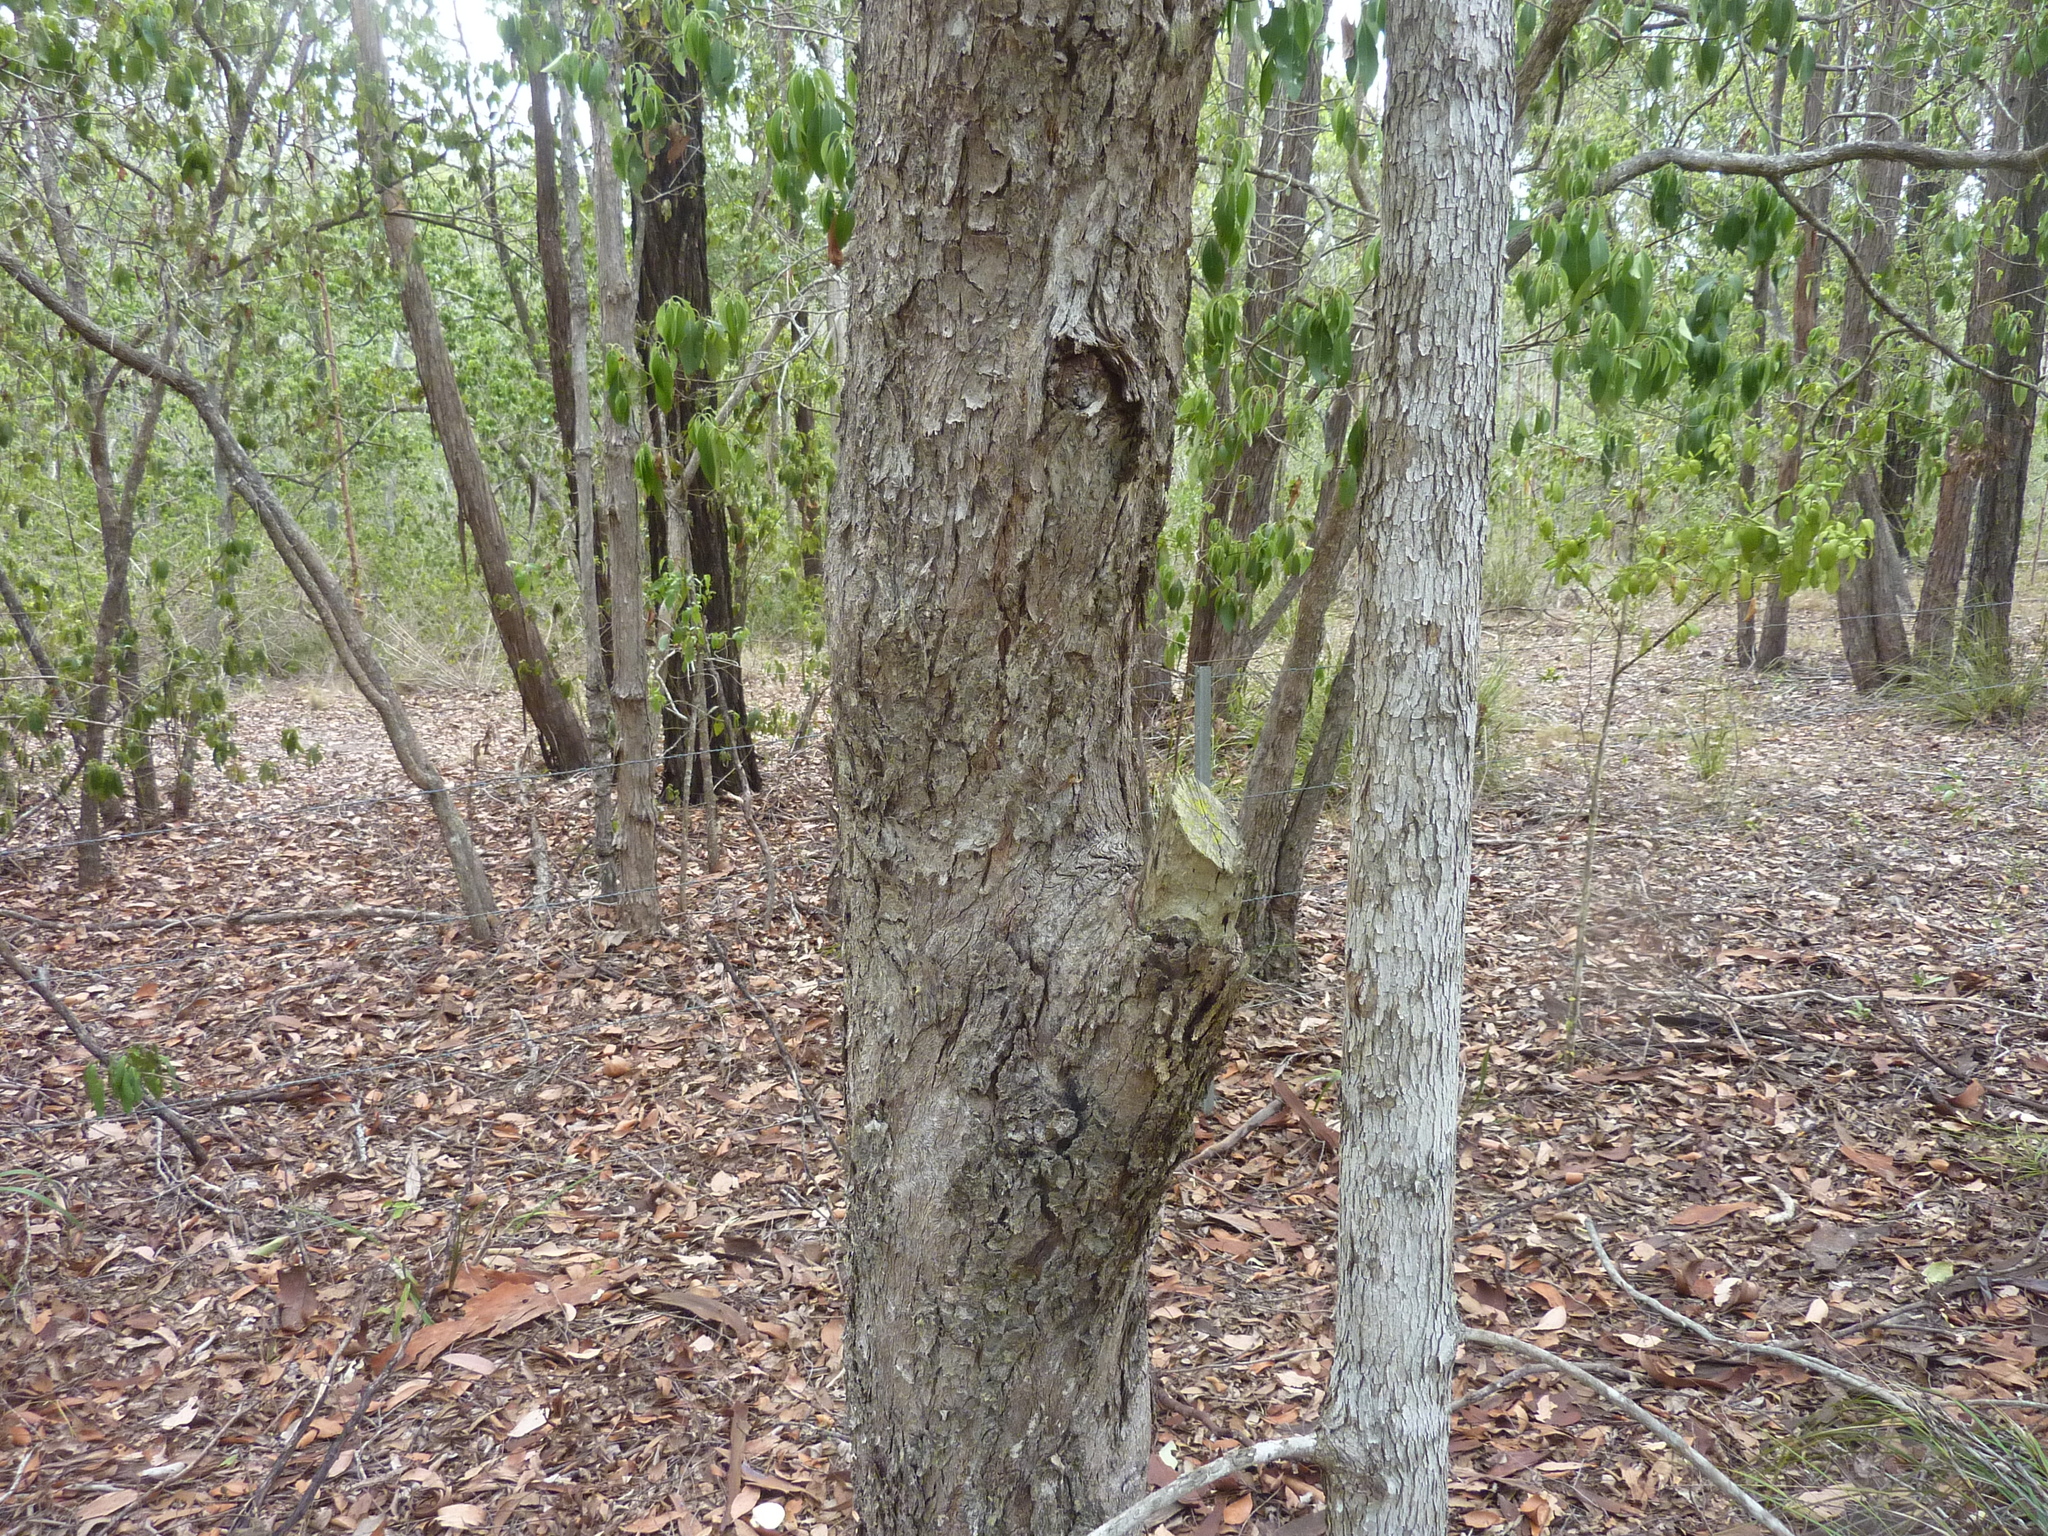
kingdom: Plantae
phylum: Tracheophyta
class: Magnoliopsida
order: Myrtales
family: Myrtaceae
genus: Lophostemon
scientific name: Lophostemon confertus
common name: Brisbane box
